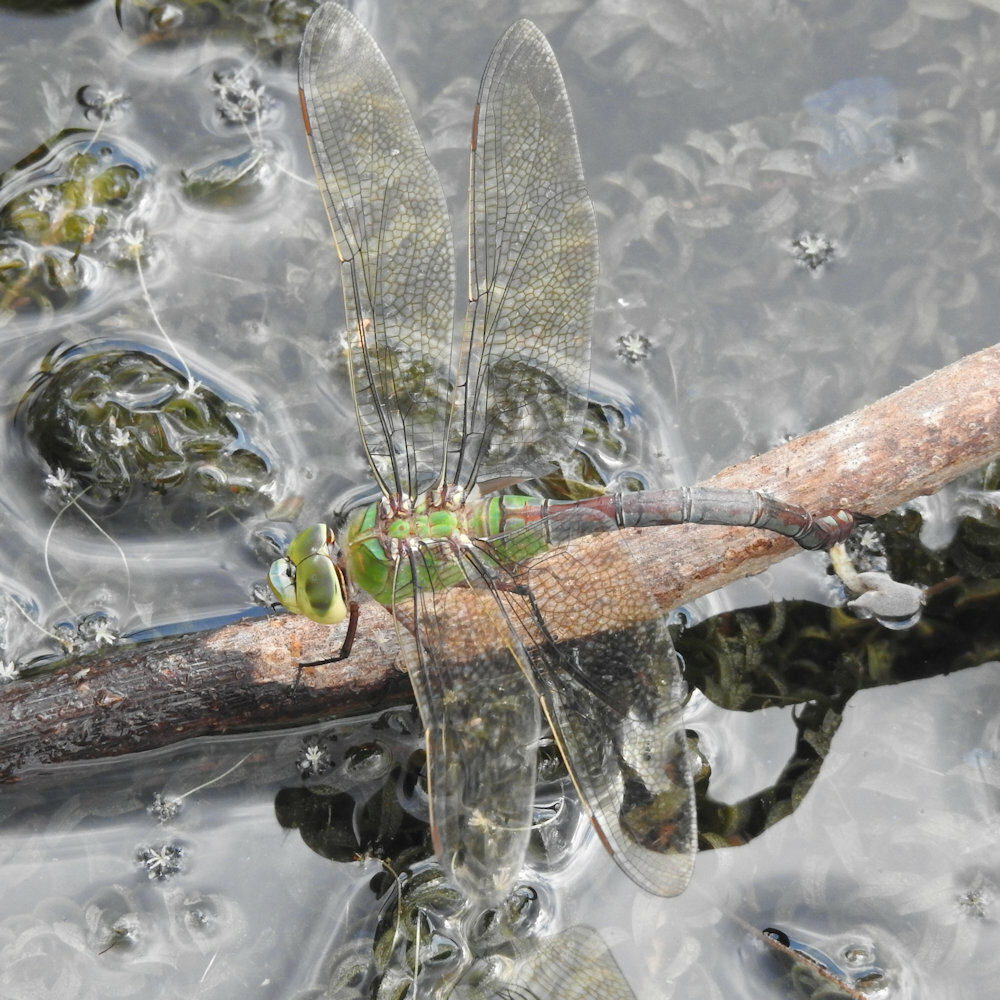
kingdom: Animalia
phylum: Arthropoda
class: Insecta
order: Odonata
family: Aeshnidae
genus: Anax
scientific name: Anax imperator
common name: Emperor dragonfly
